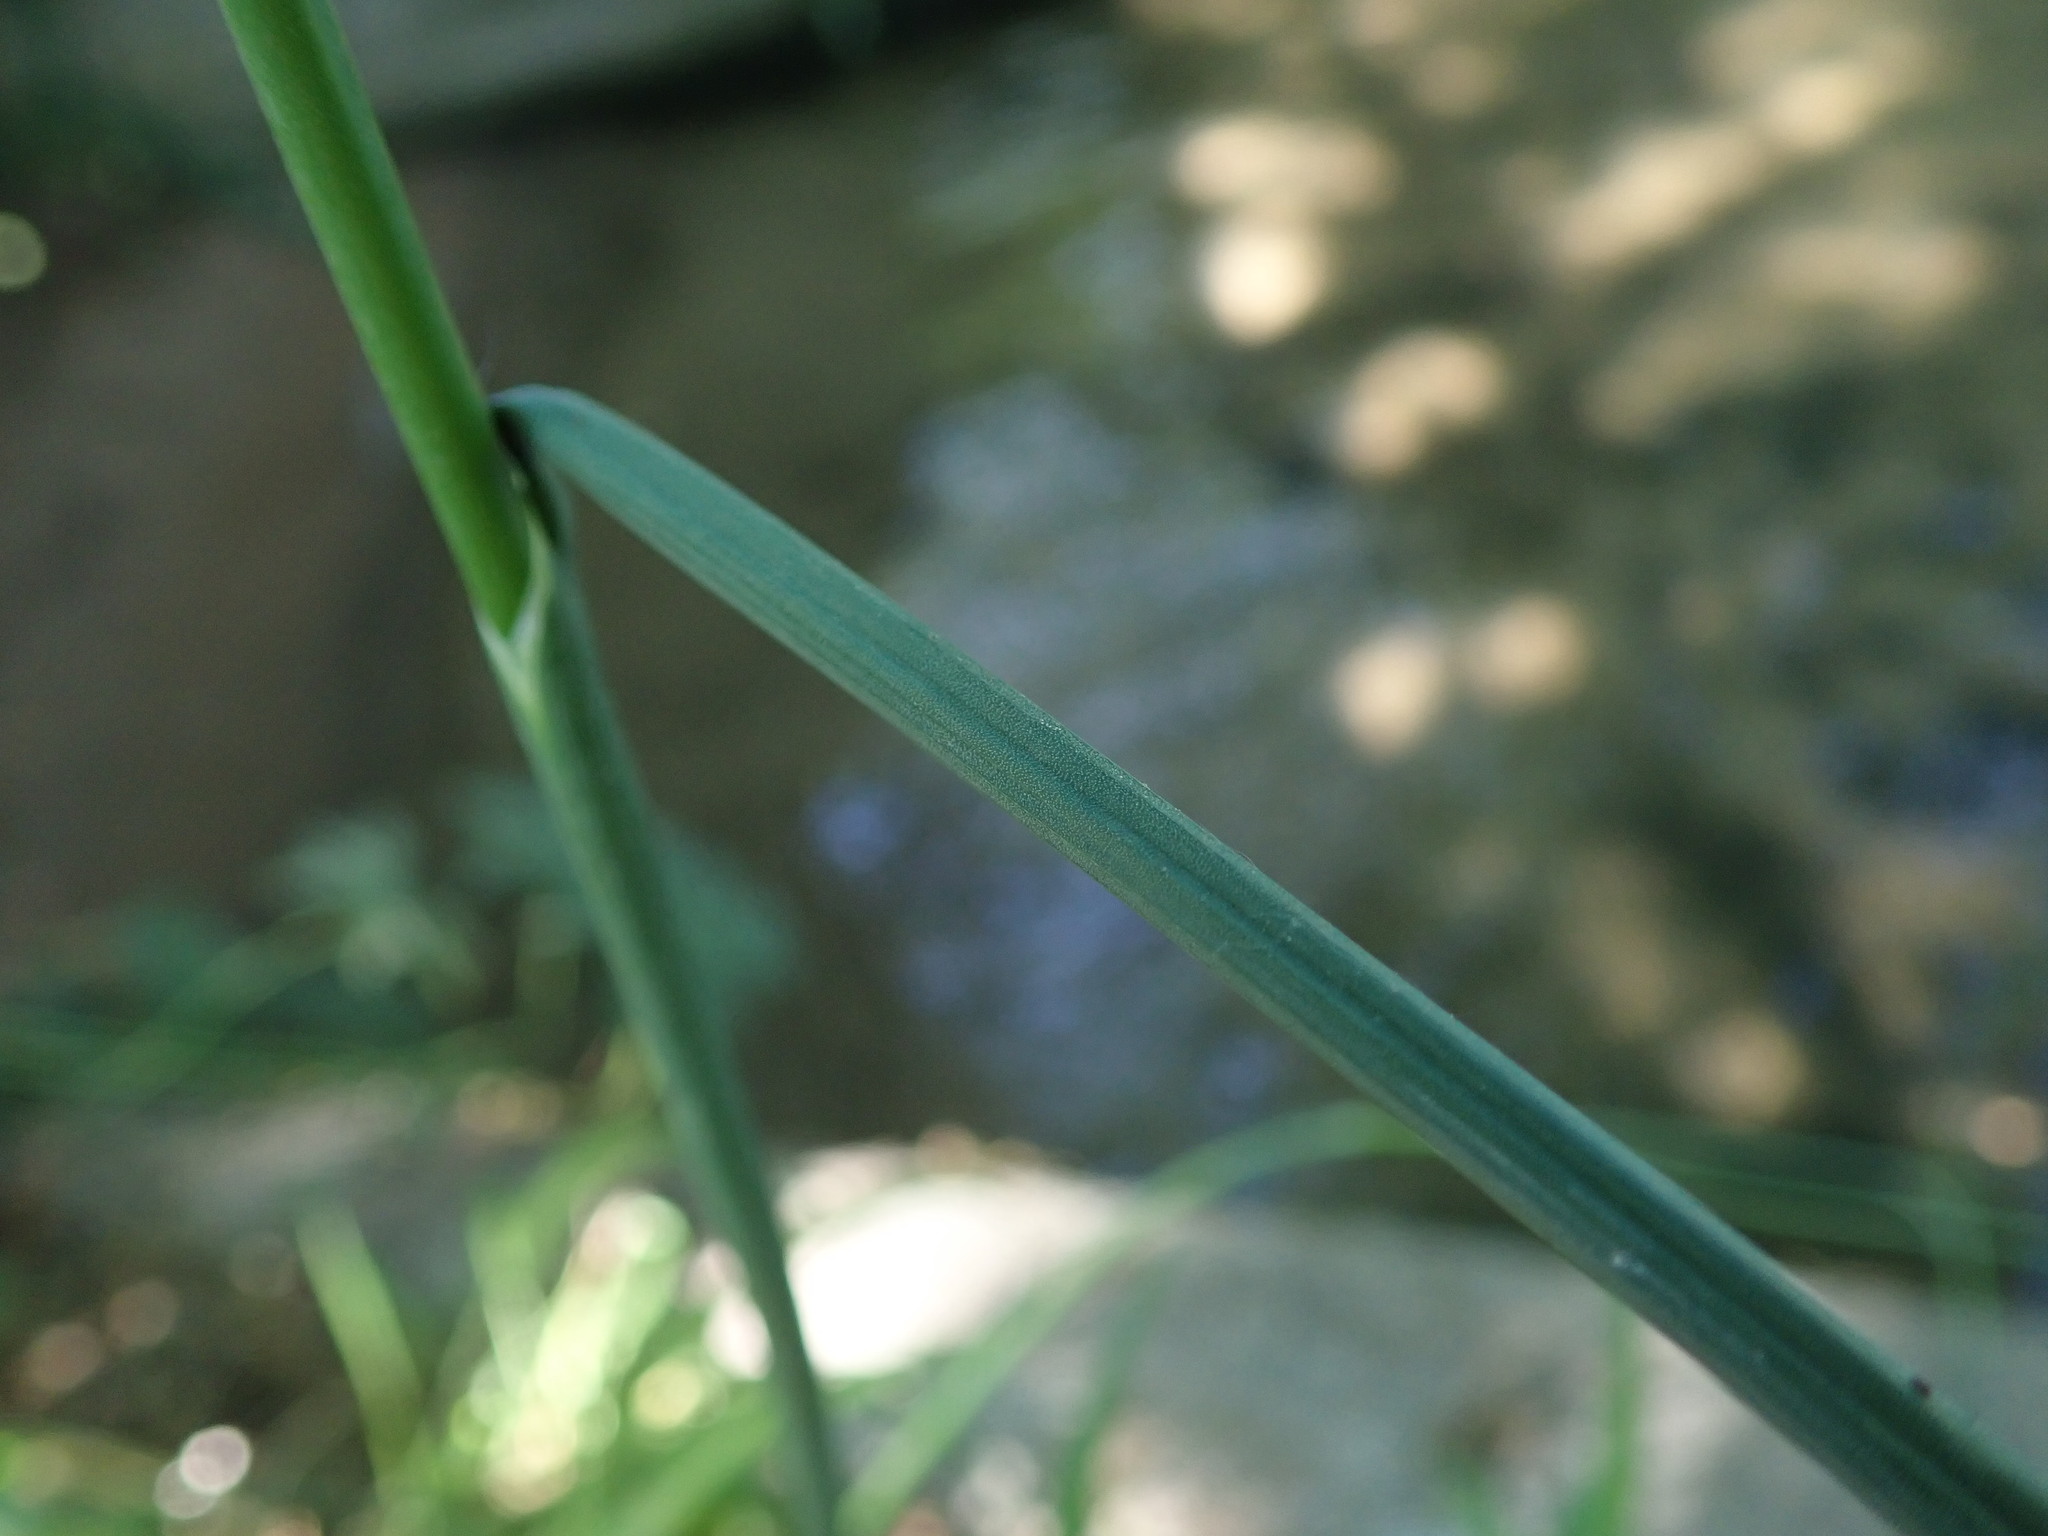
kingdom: Plantae
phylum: Tracheophyta
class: Liliopsida
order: Asparagales
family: Amaryllidaceae
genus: Allium
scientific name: Allium vineale
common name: Crow garlic
